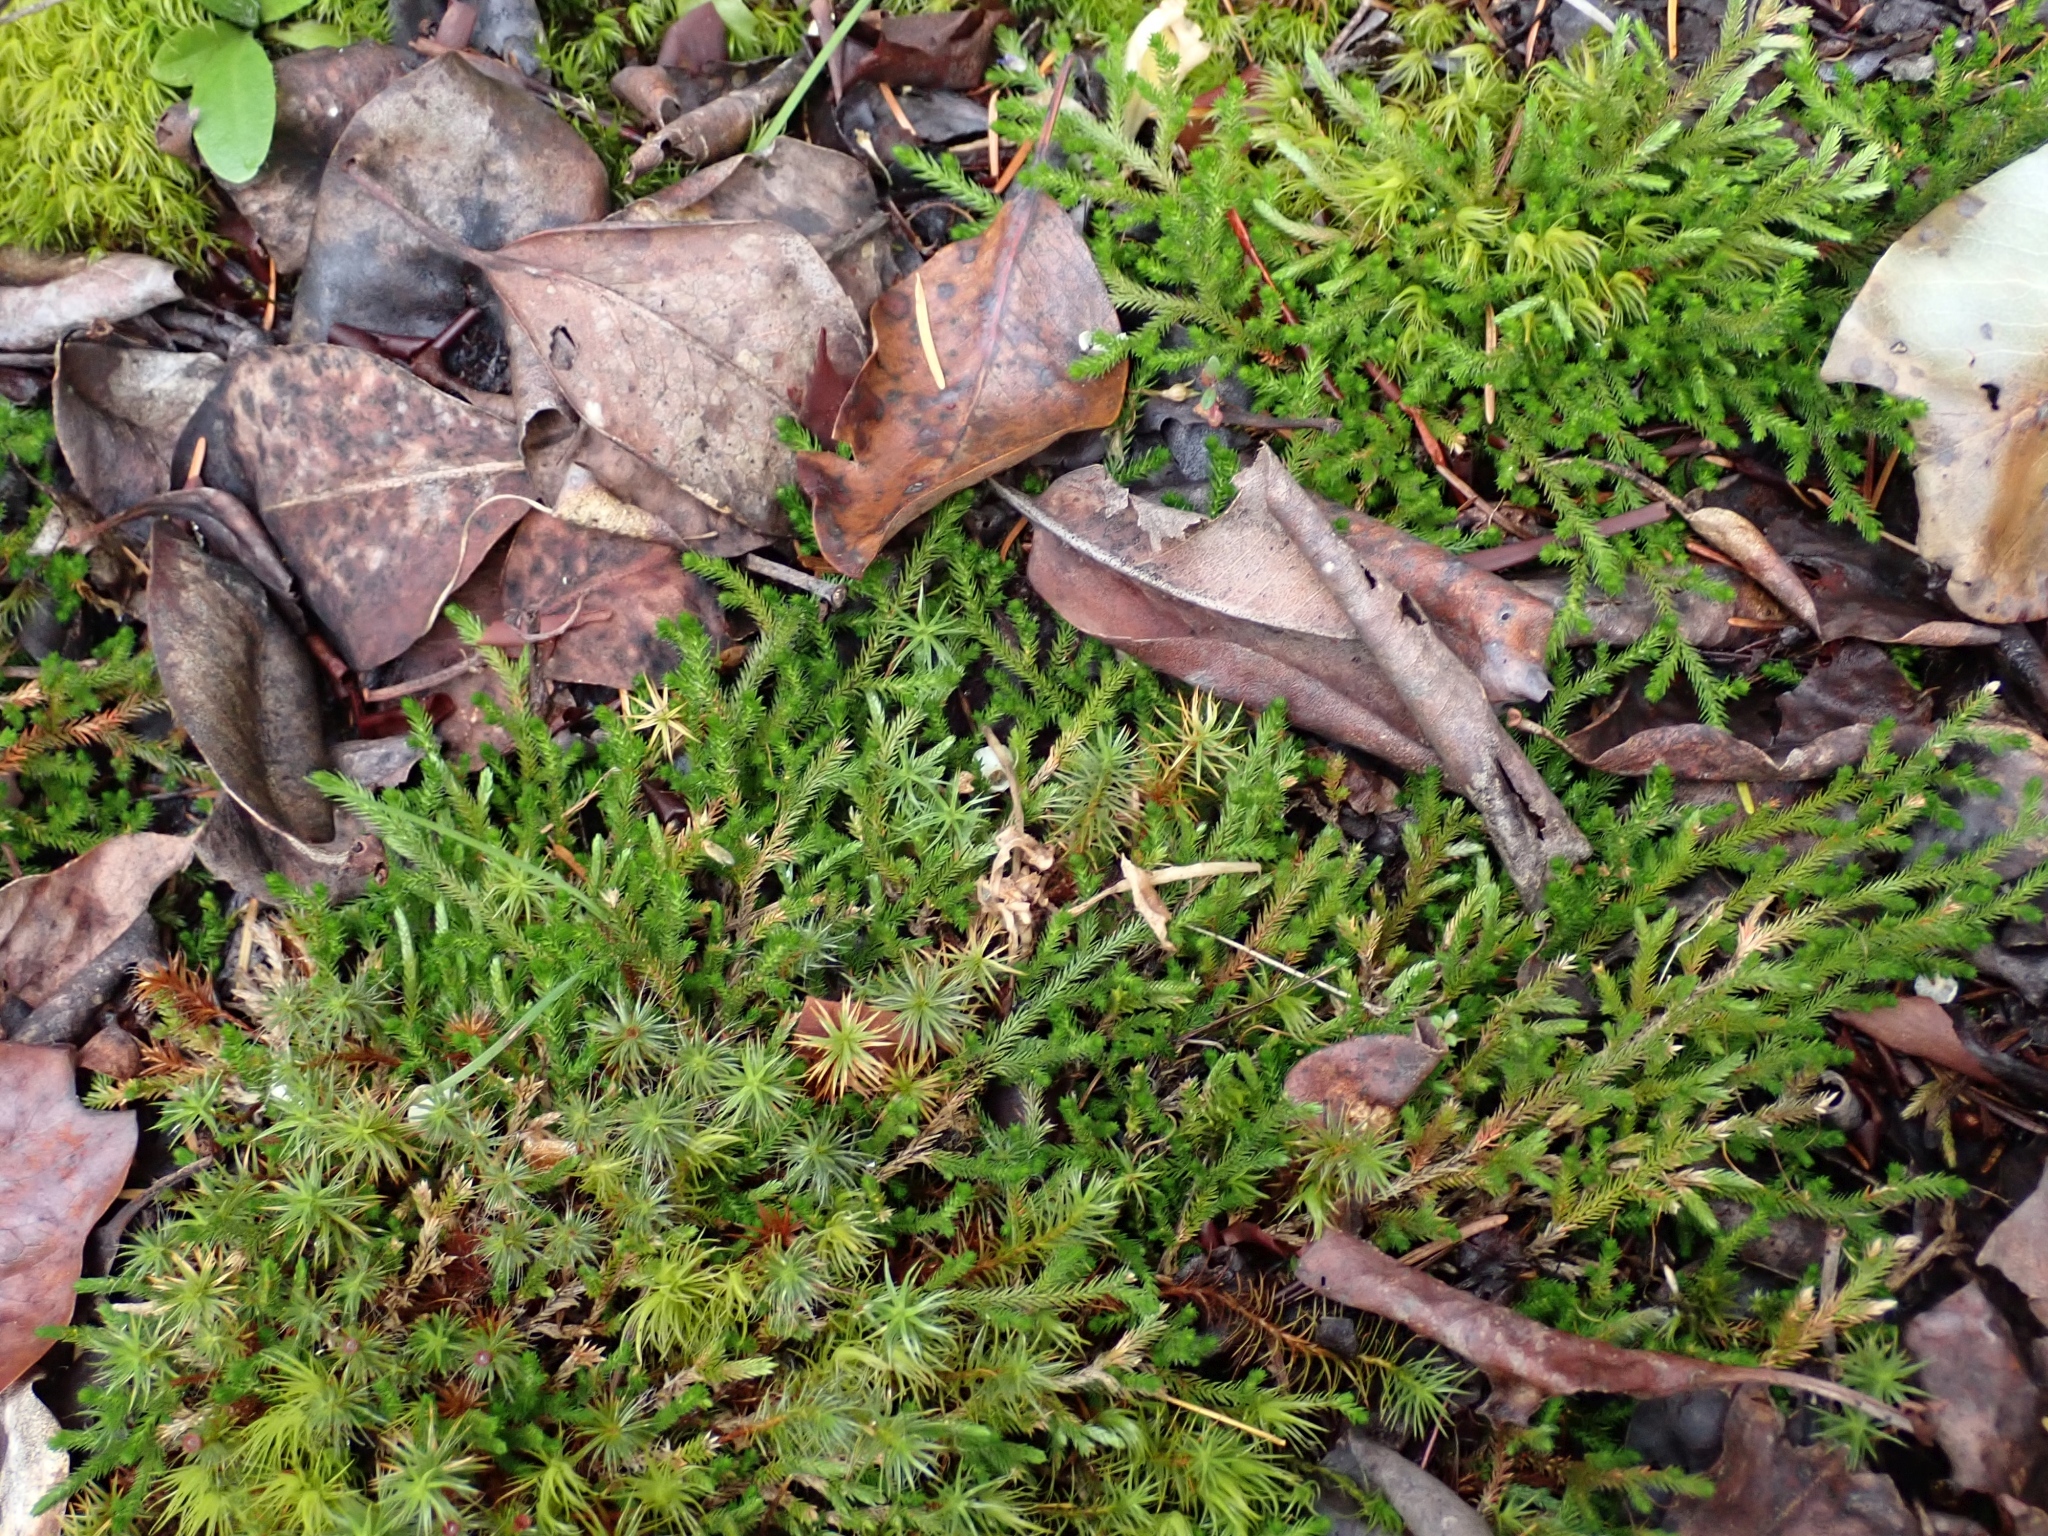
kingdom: Plantae
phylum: Tracheophyta
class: Lycopodiopsida
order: Selaginellales
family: Selaginellaceae
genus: Selaginella
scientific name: Selaginella wallacei
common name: Wallace's selaginella
